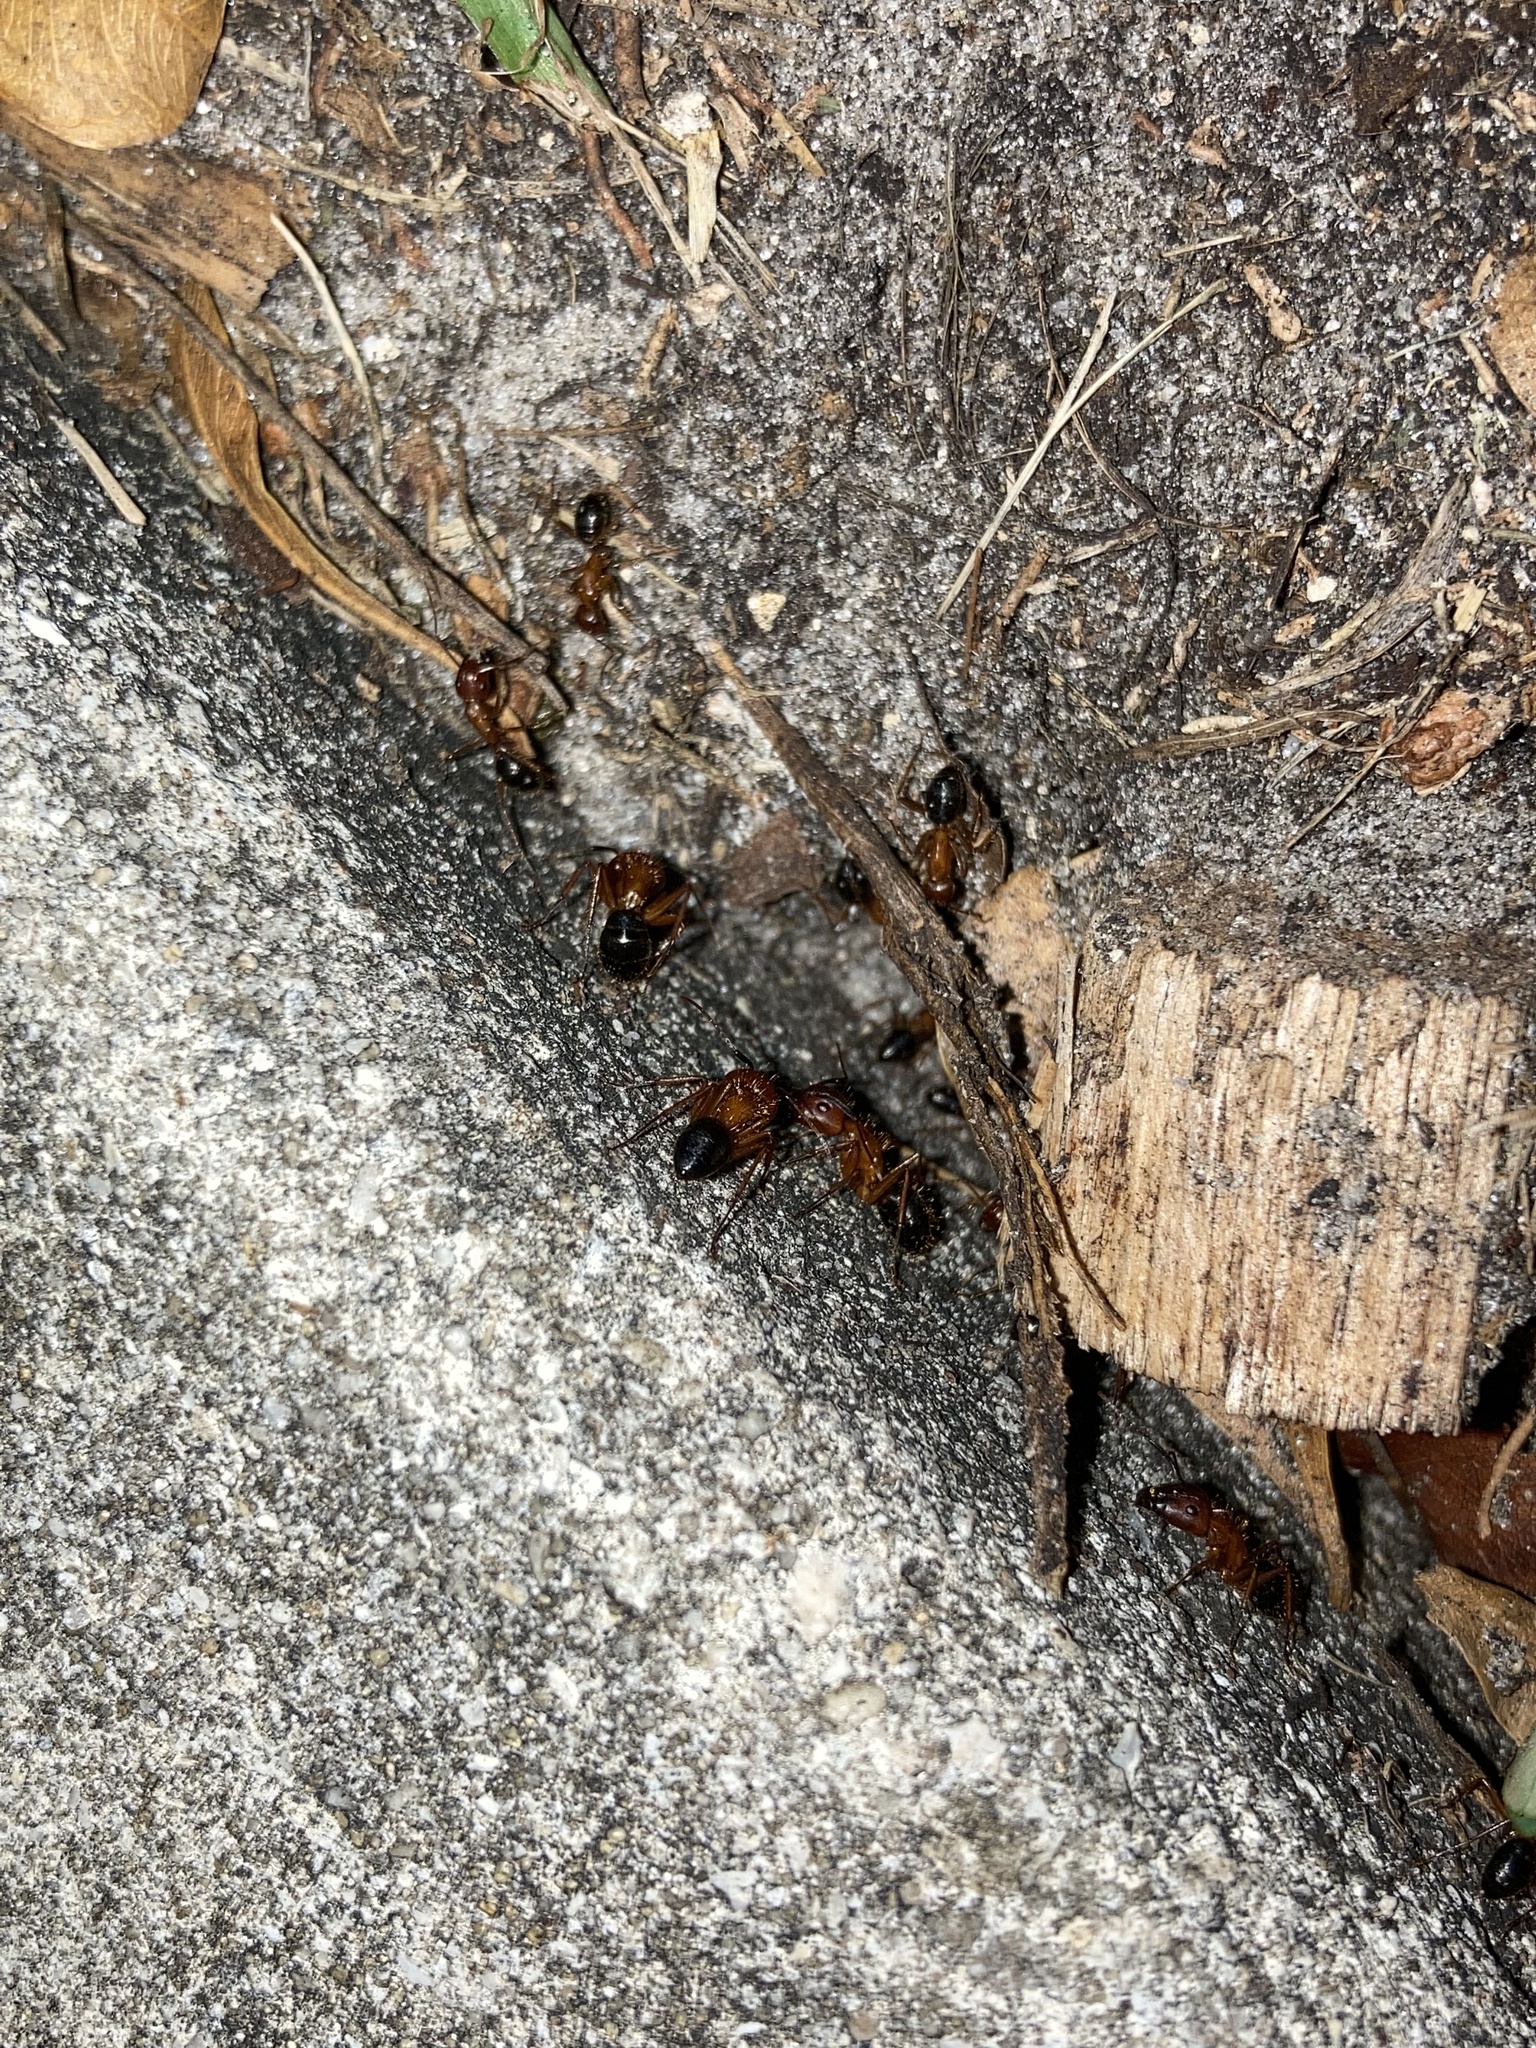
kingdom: Animalia
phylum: Arthropoda
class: Insecta
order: Hymenoptera
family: Formicidae
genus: Camponotus
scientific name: Camponotus floridanus
